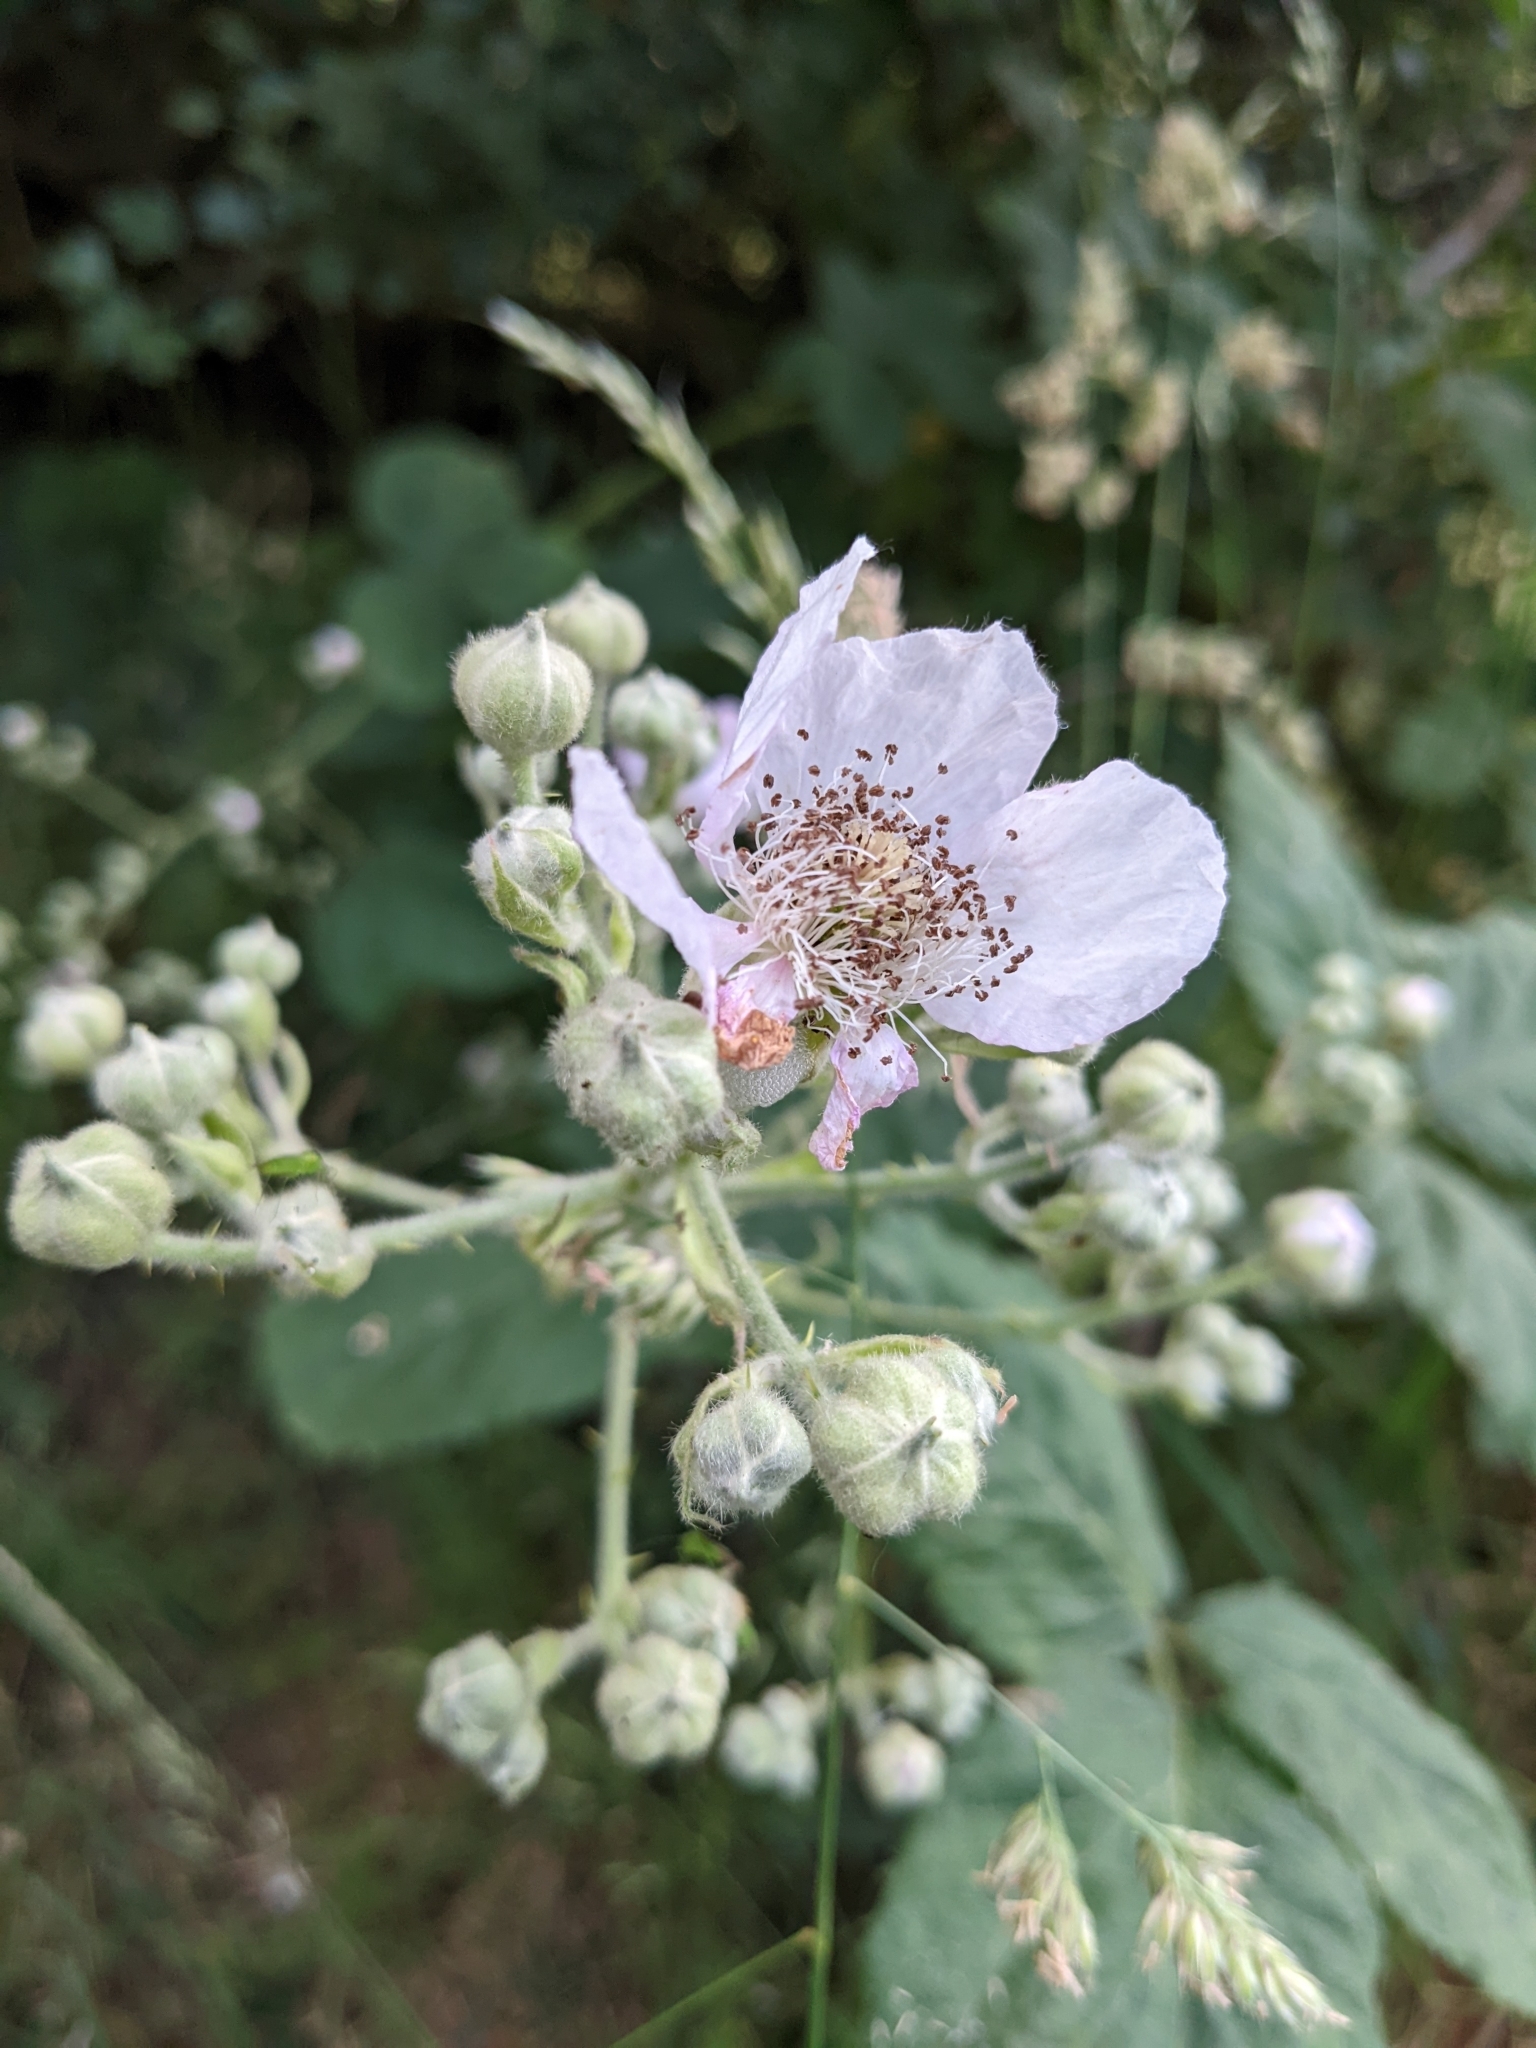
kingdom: Plantae
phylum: Tracheophyta
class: Magnoliopsida
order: Rosales
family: Rosaceae
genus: Rubus
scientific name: Rubus armeniacus
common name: Himalayan blackberry
